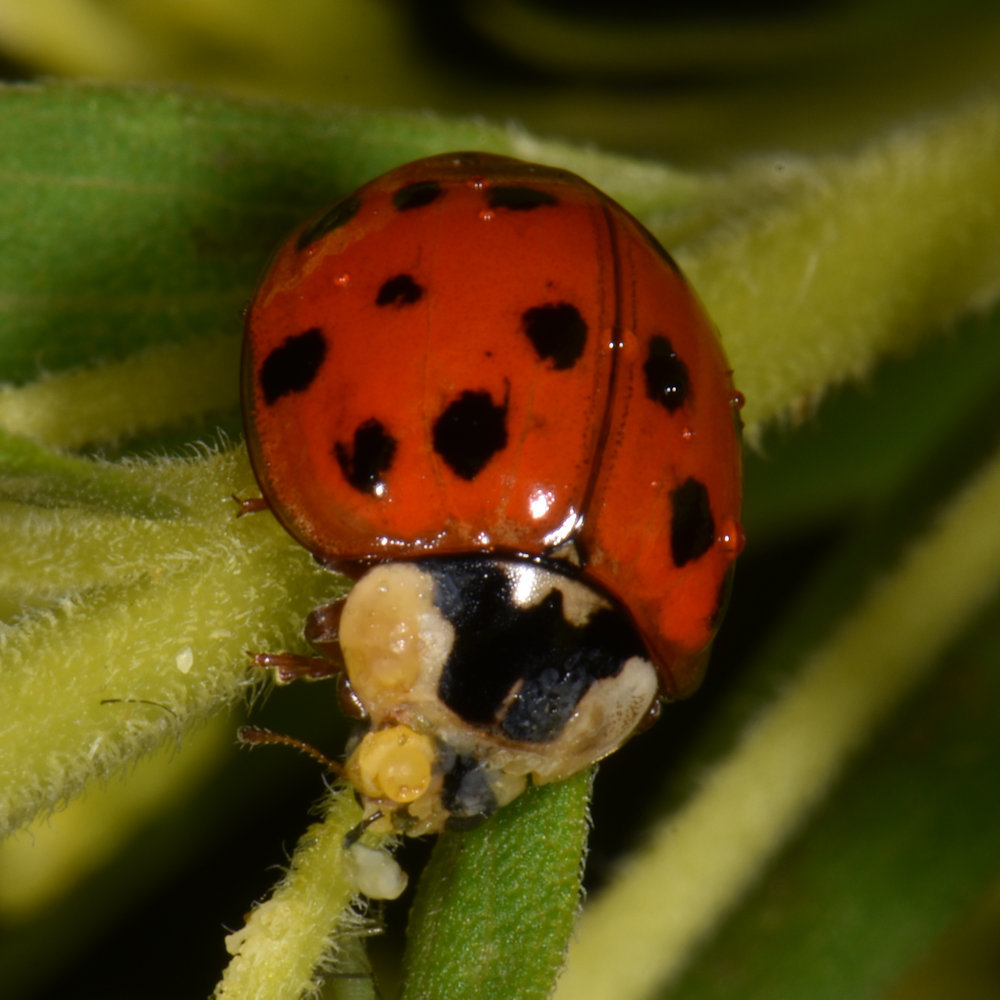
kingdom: Animalia
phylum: Arthropoda
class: Insecta
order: Coleoptera
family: Coccinellidae
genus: Harmonia
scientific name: Harmonia axyridis
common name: Harlequin ladybird
